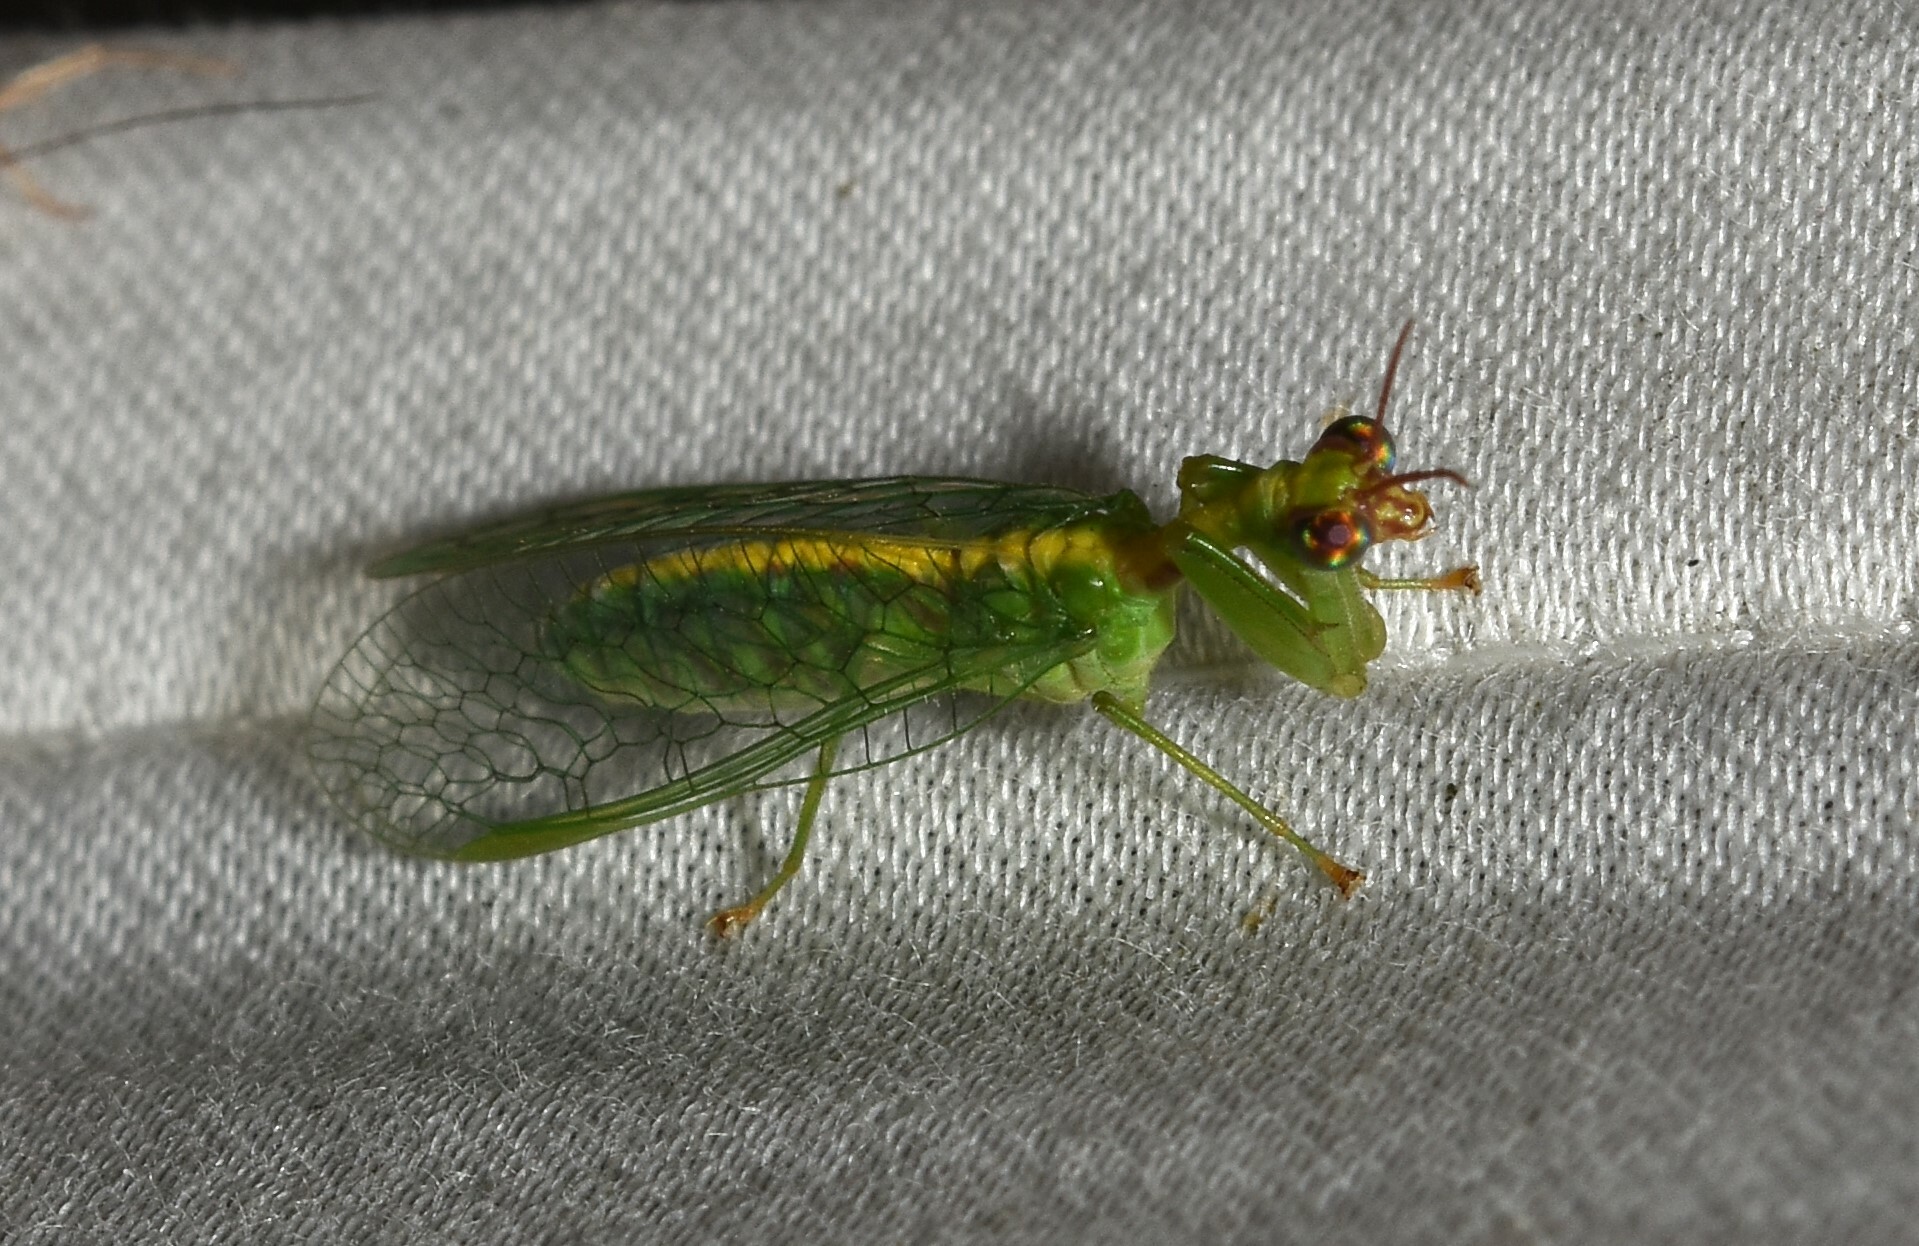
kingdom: Animalia
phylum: Arthropoda
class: Insecta
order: Neuroptera
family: Mantispidae
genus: Zeugomantispa
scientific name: Zeugomantispa minuta
